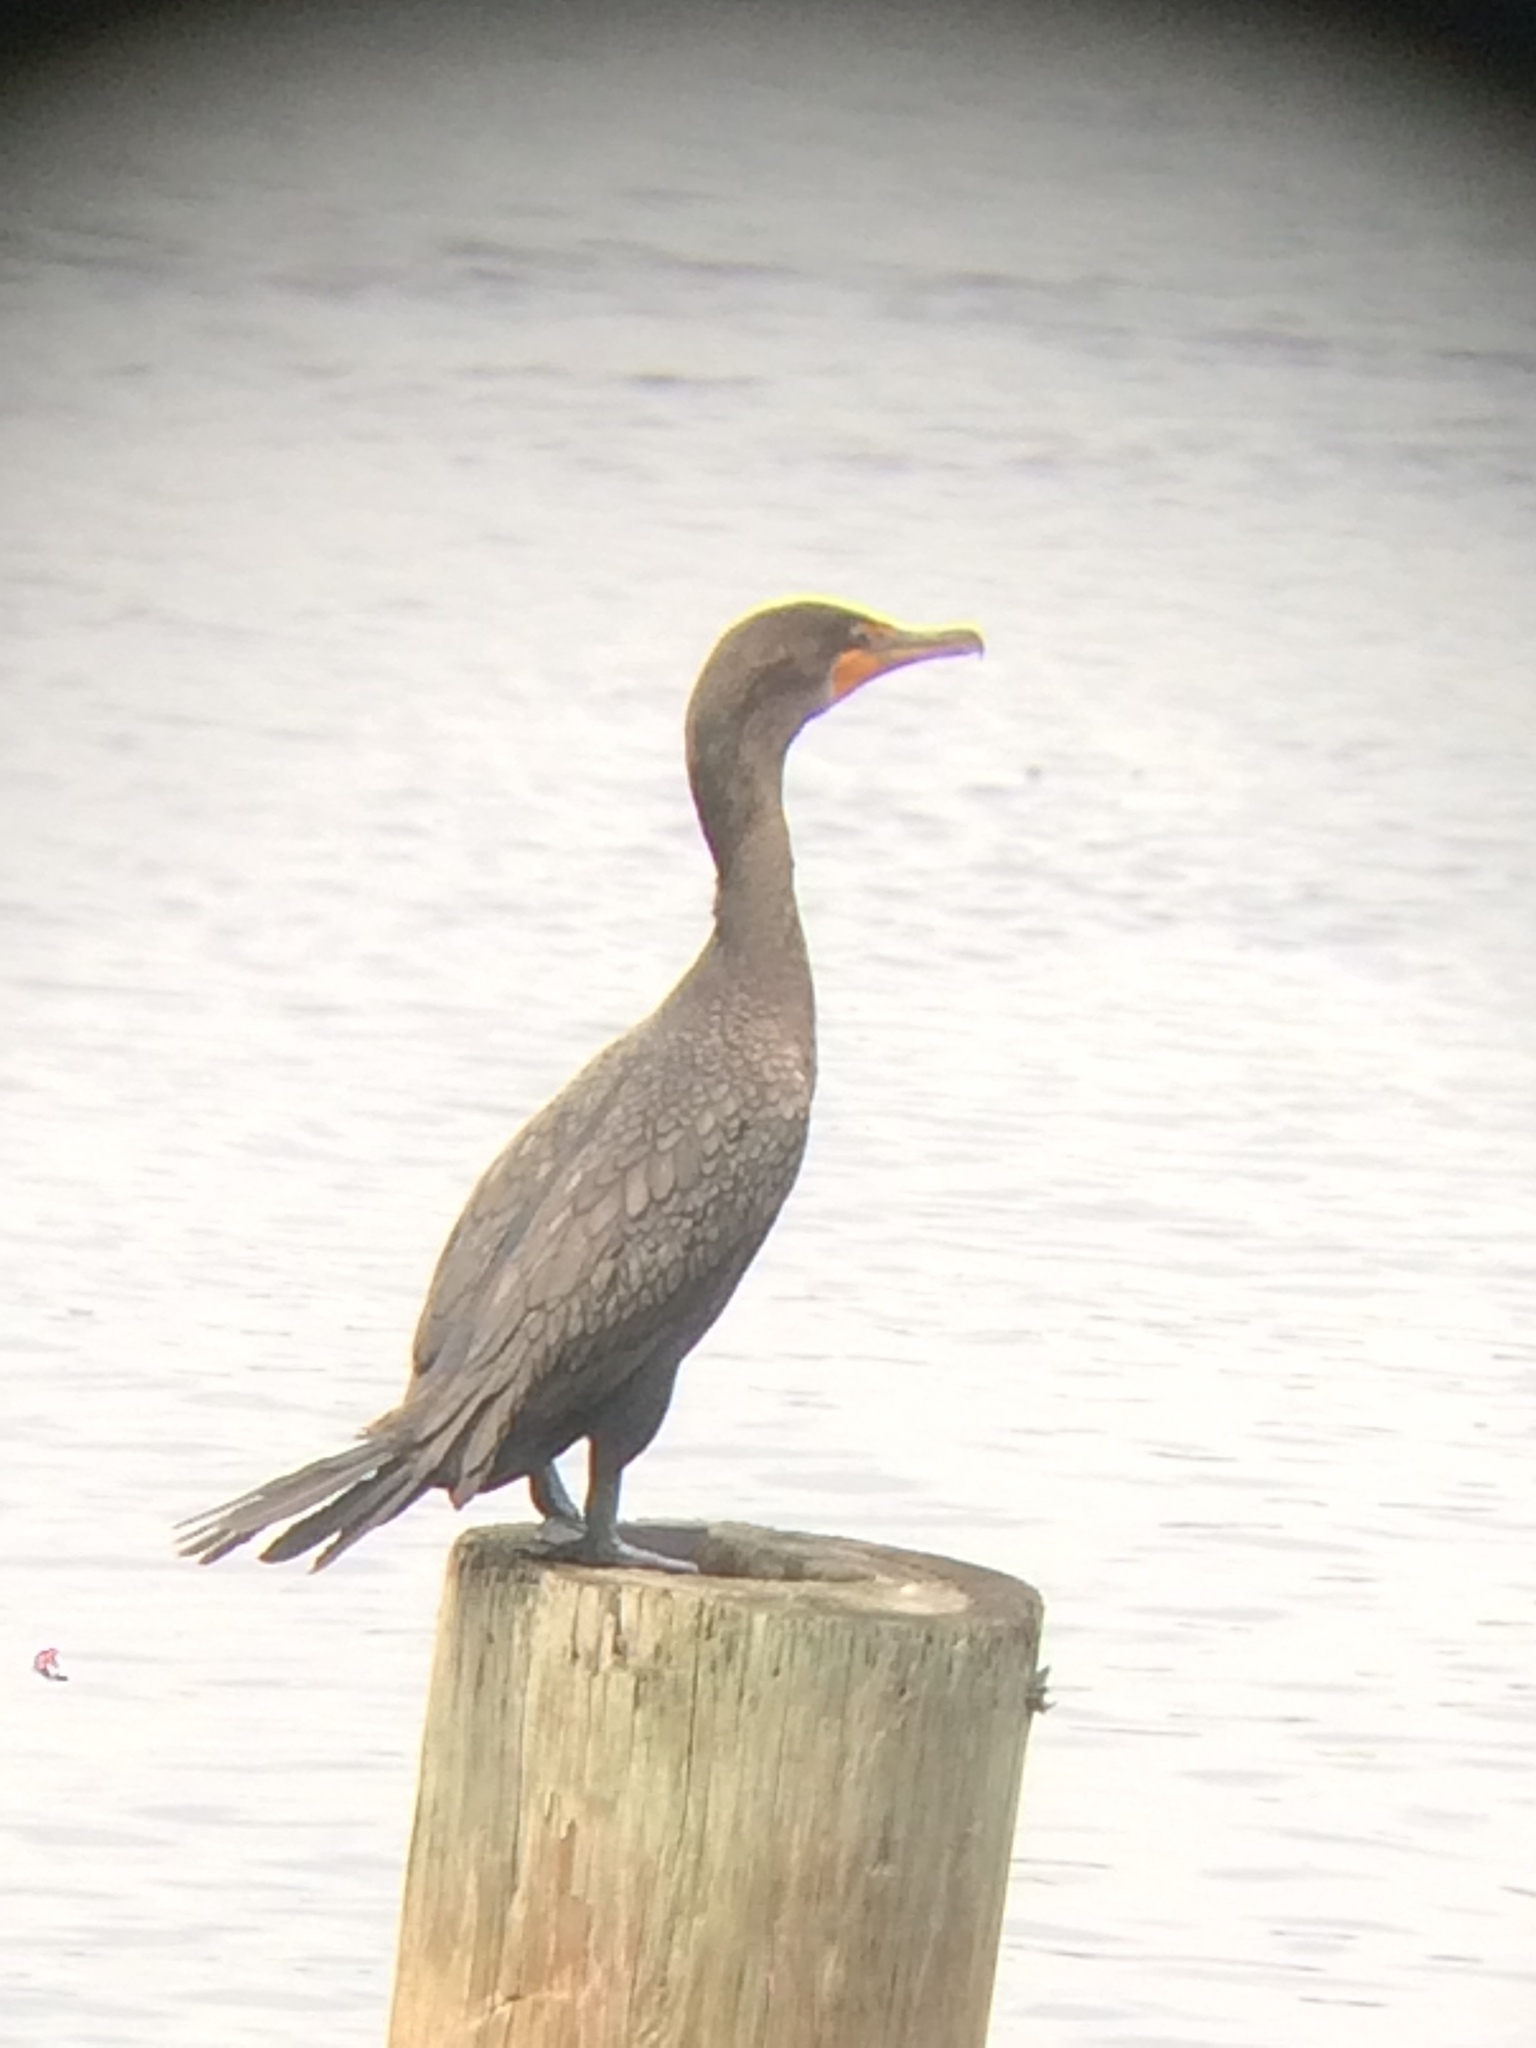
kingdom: Animalia
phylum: Chordata
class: Aves
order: Suliformes
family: Phalacrocoracidae
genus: Phalacrocorax
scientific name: Phalacrocorax auritus
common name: Double-crested cormorant
